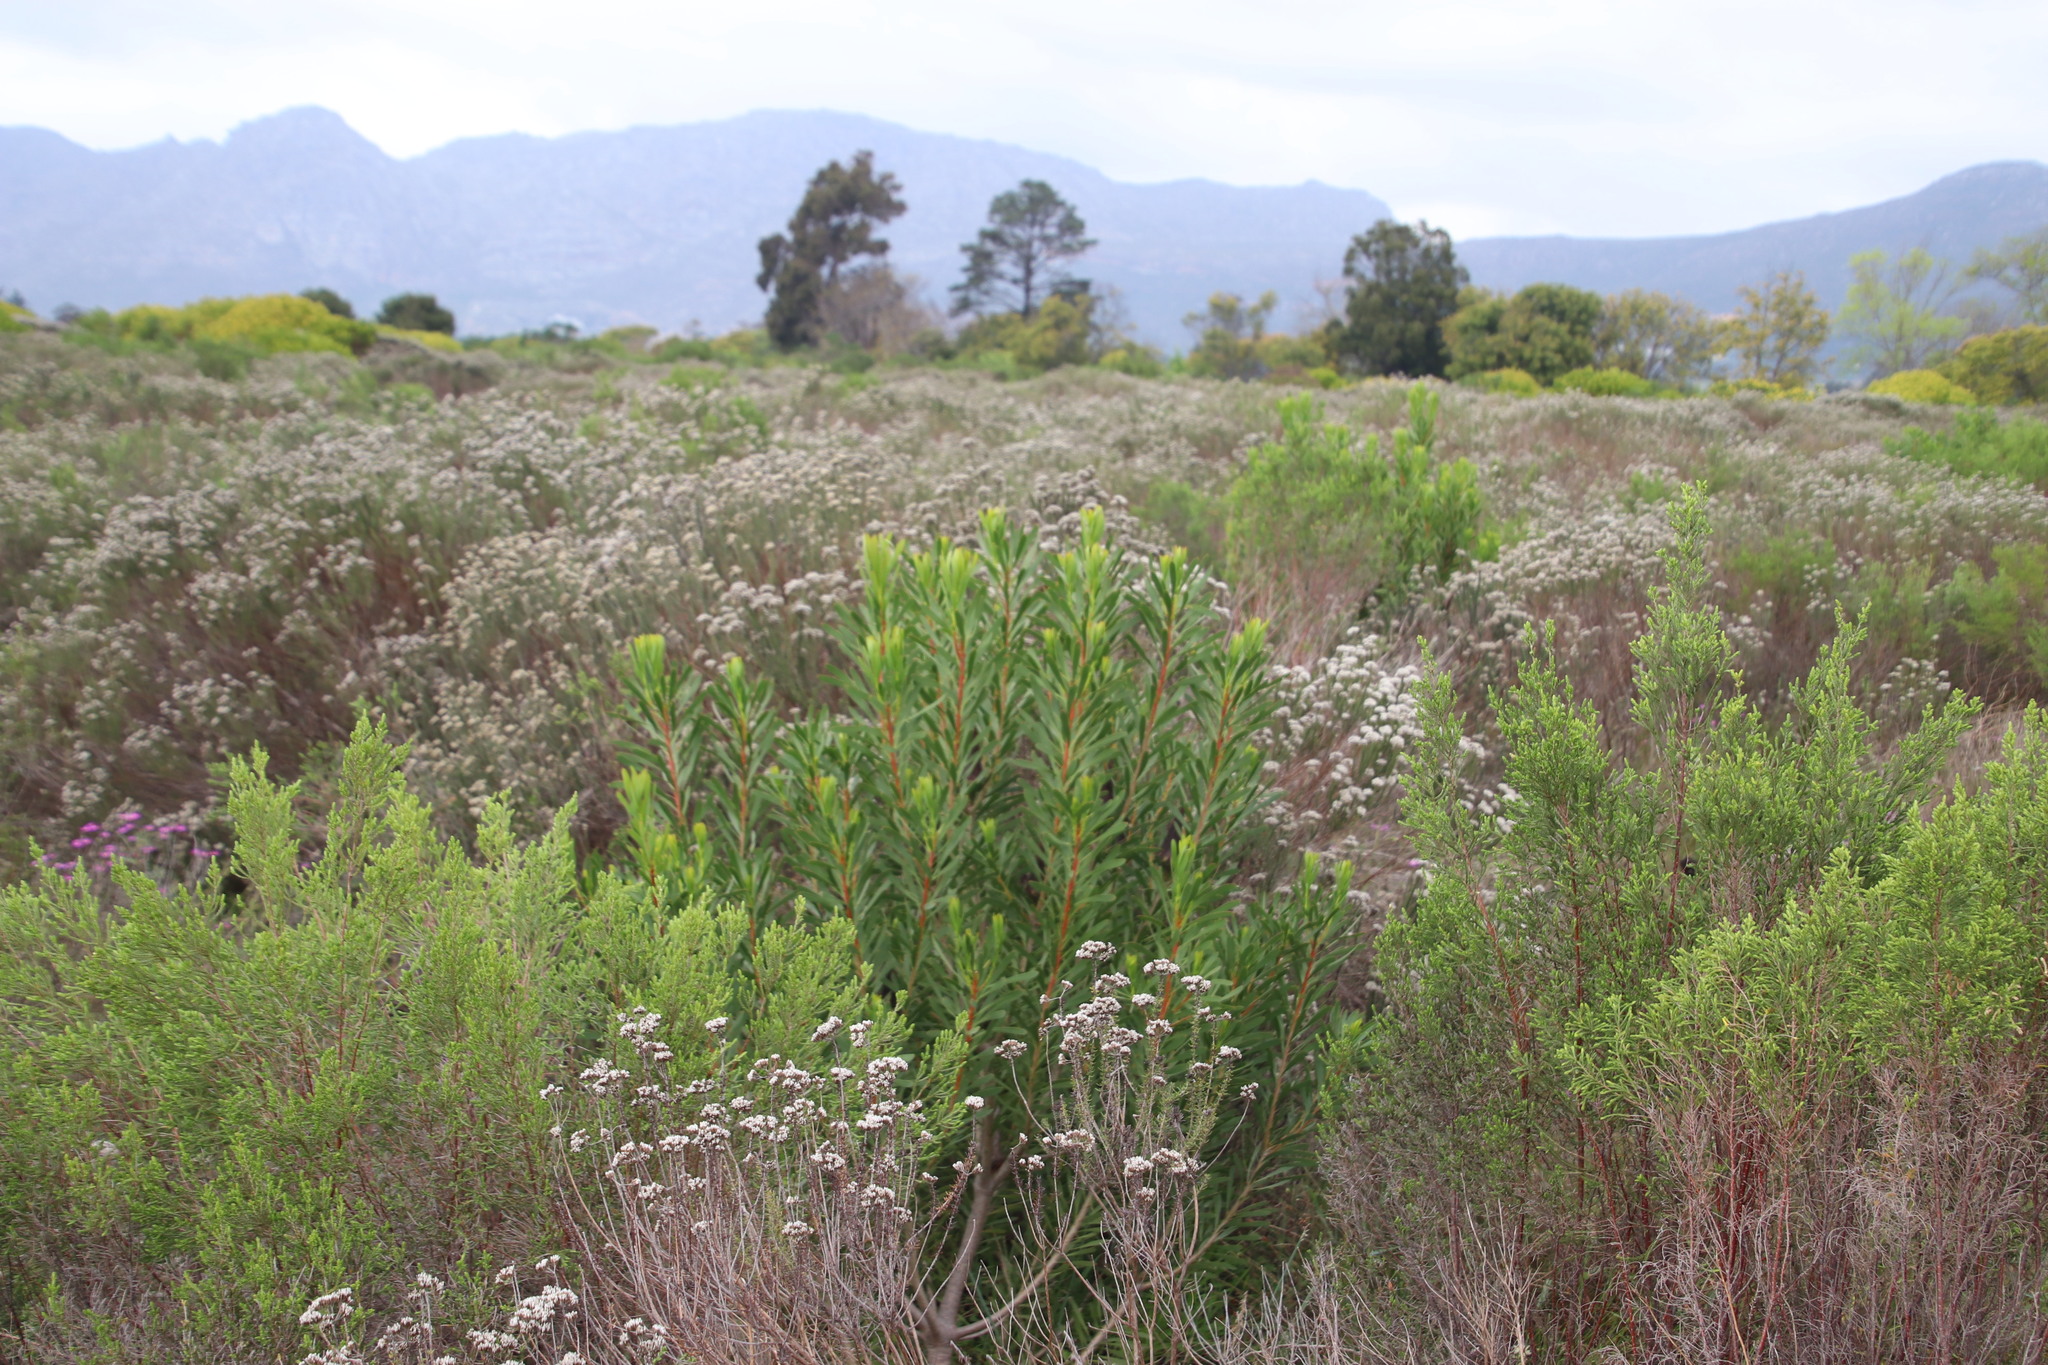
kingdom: Plantae
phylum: Tracheophyta
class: Magnoliopsida
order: Proteales
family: Proteaceae
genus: Protea
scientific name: Protea repens
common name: Sugarbush
